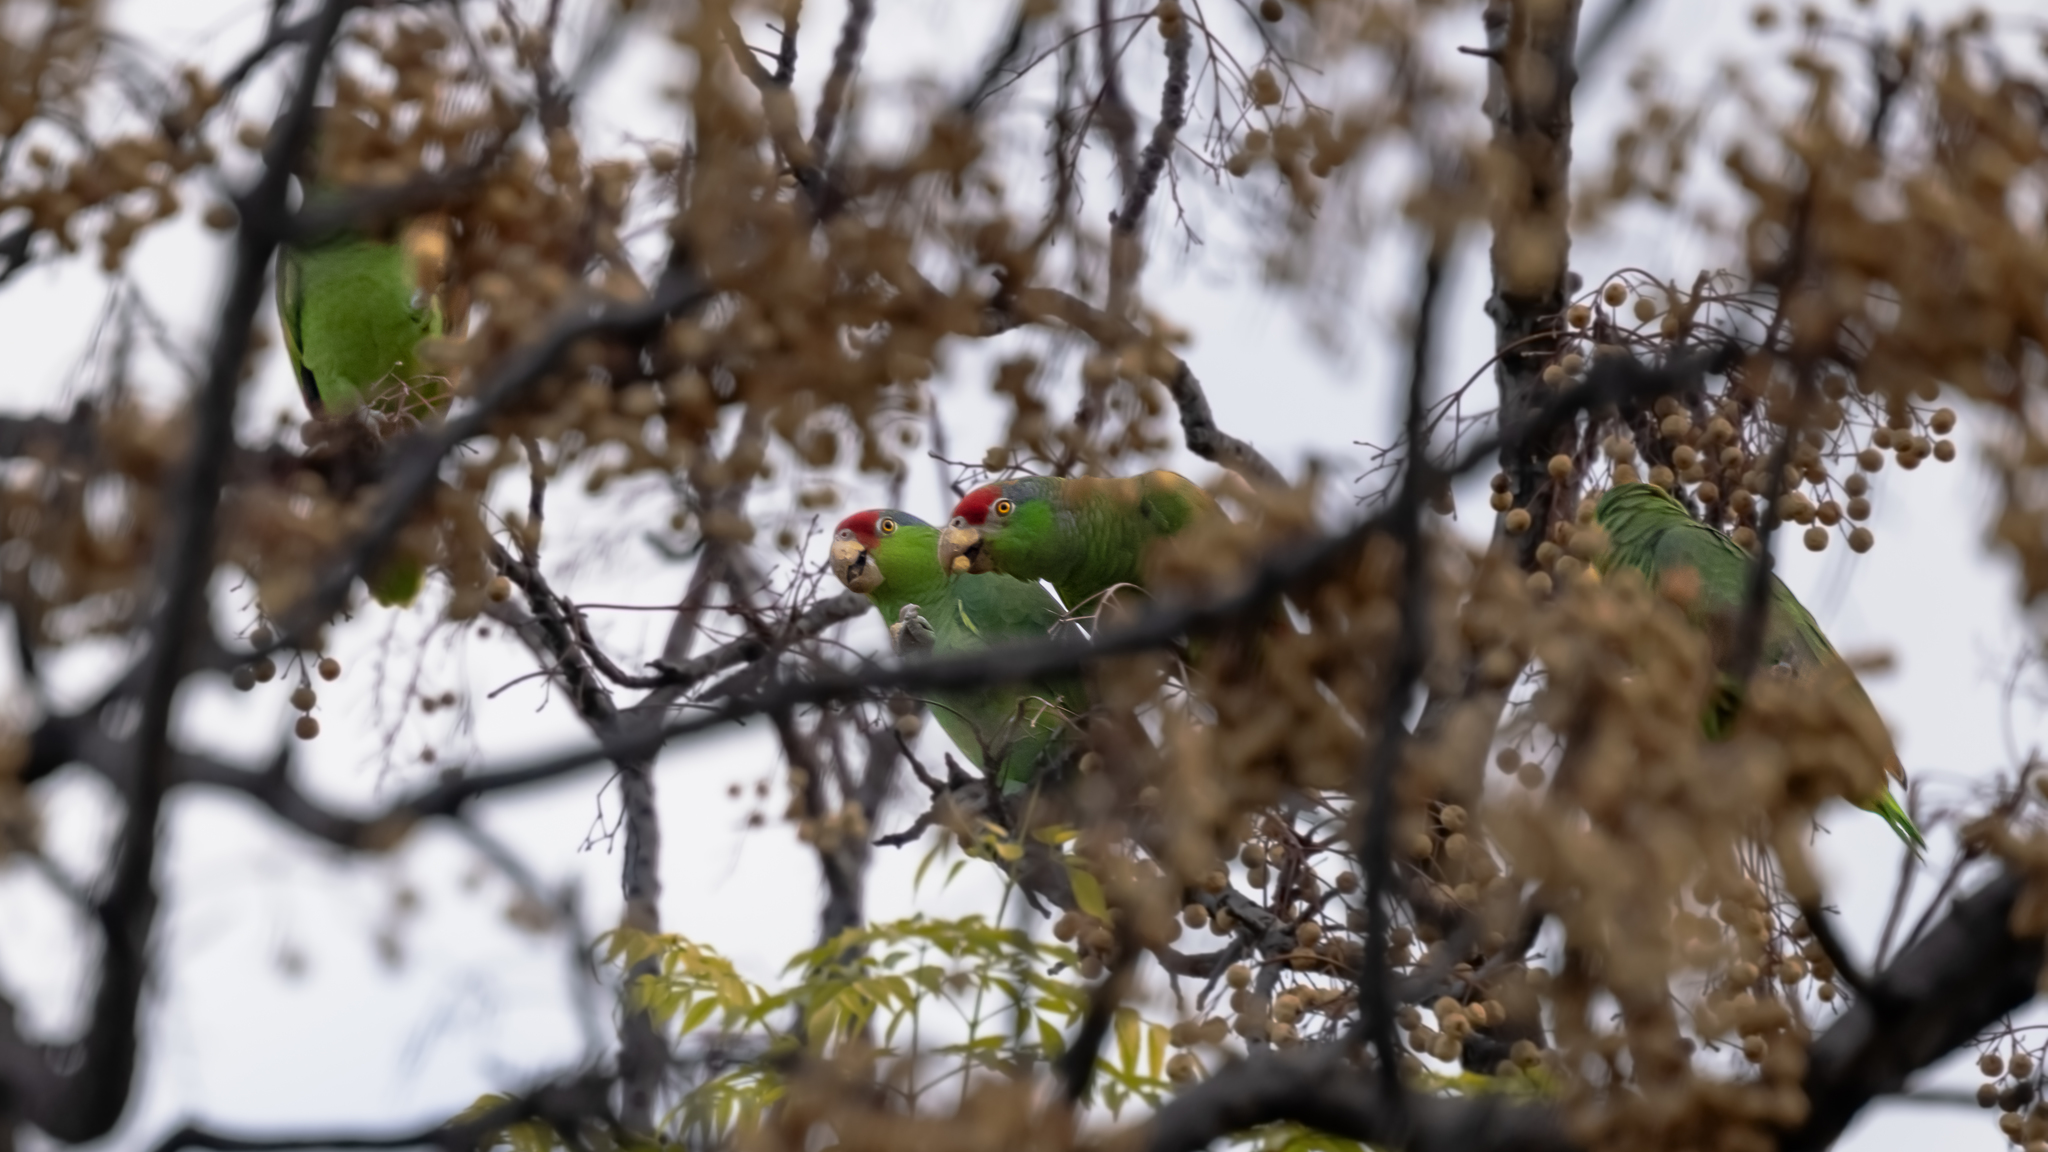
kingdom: Animalia
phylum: Chordata
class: Aves
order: Psittaciformes
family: Psittacidae
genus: Amazona
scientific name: Amazona viridigenalis
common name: Red-crowned amazon
